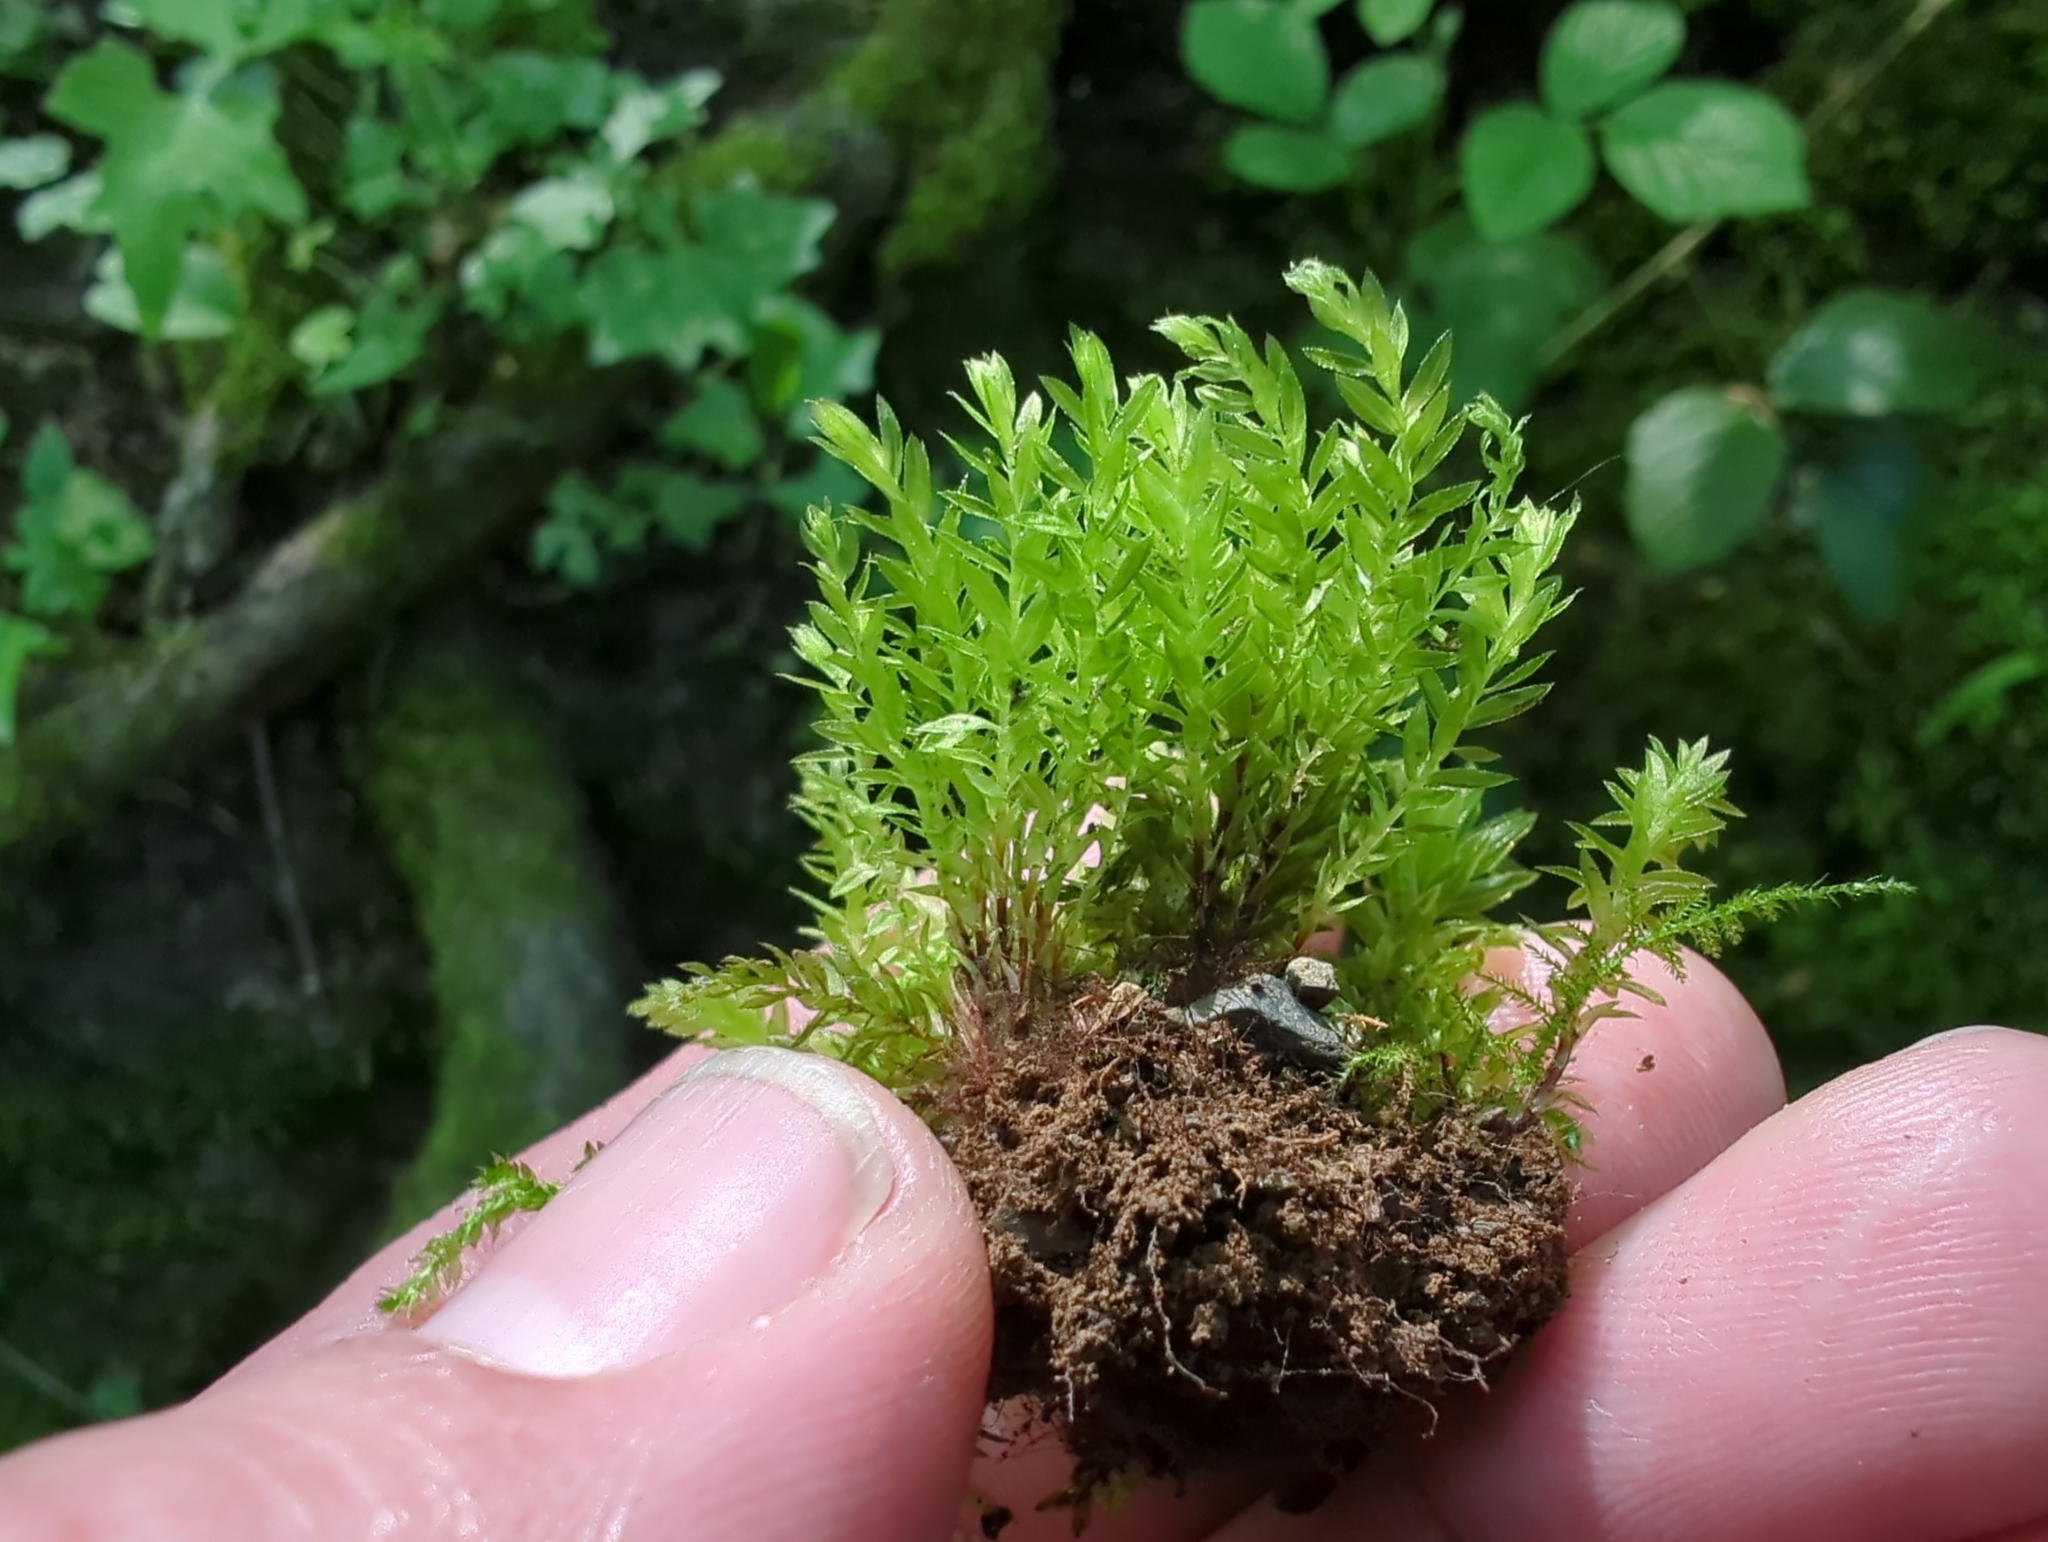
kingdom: Plantae
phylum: Bryophyta
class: Bryopsida
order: Bryales
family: Mniaceae
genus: Mnium
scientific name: Mnium hornum
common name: Swan's-neck leafy moss
